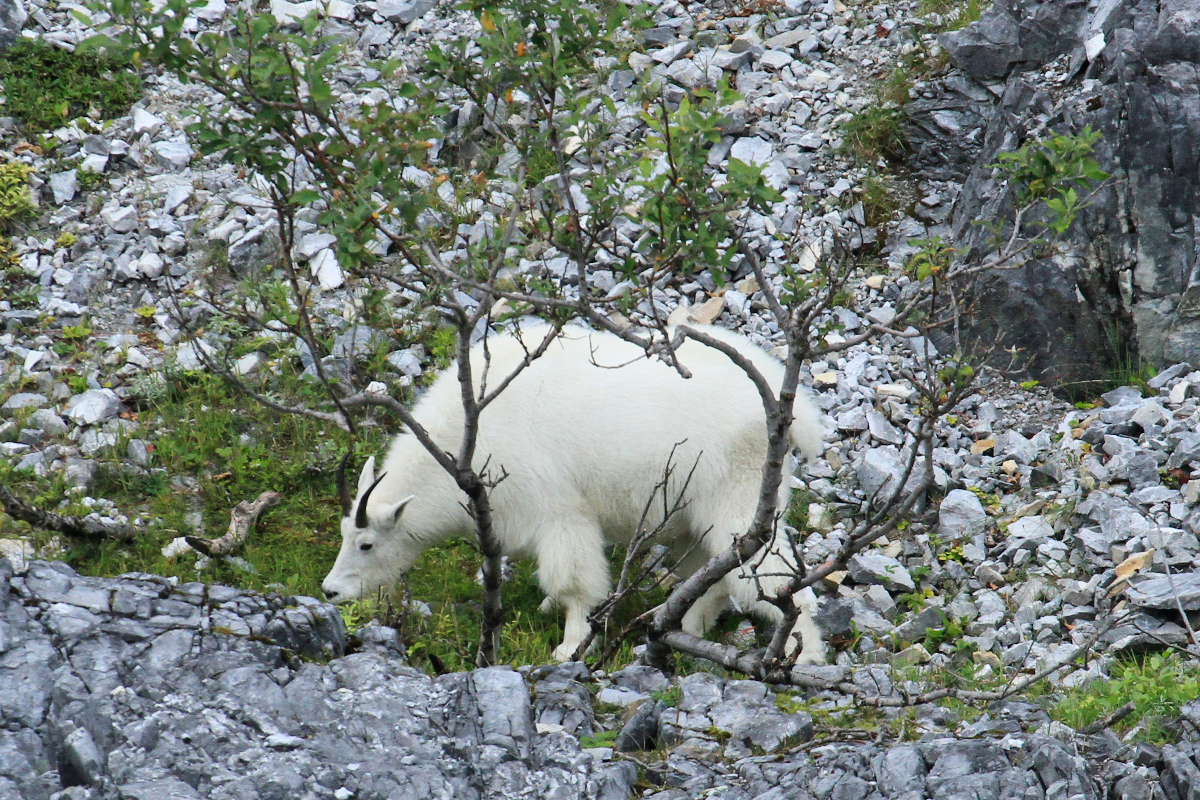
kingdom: Animalia
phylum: Chordata
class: Mammalia
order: Artiodactyla
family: Bovidae
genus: Oreamnos
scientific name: Oreamnos americanus
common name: Mountain goat
